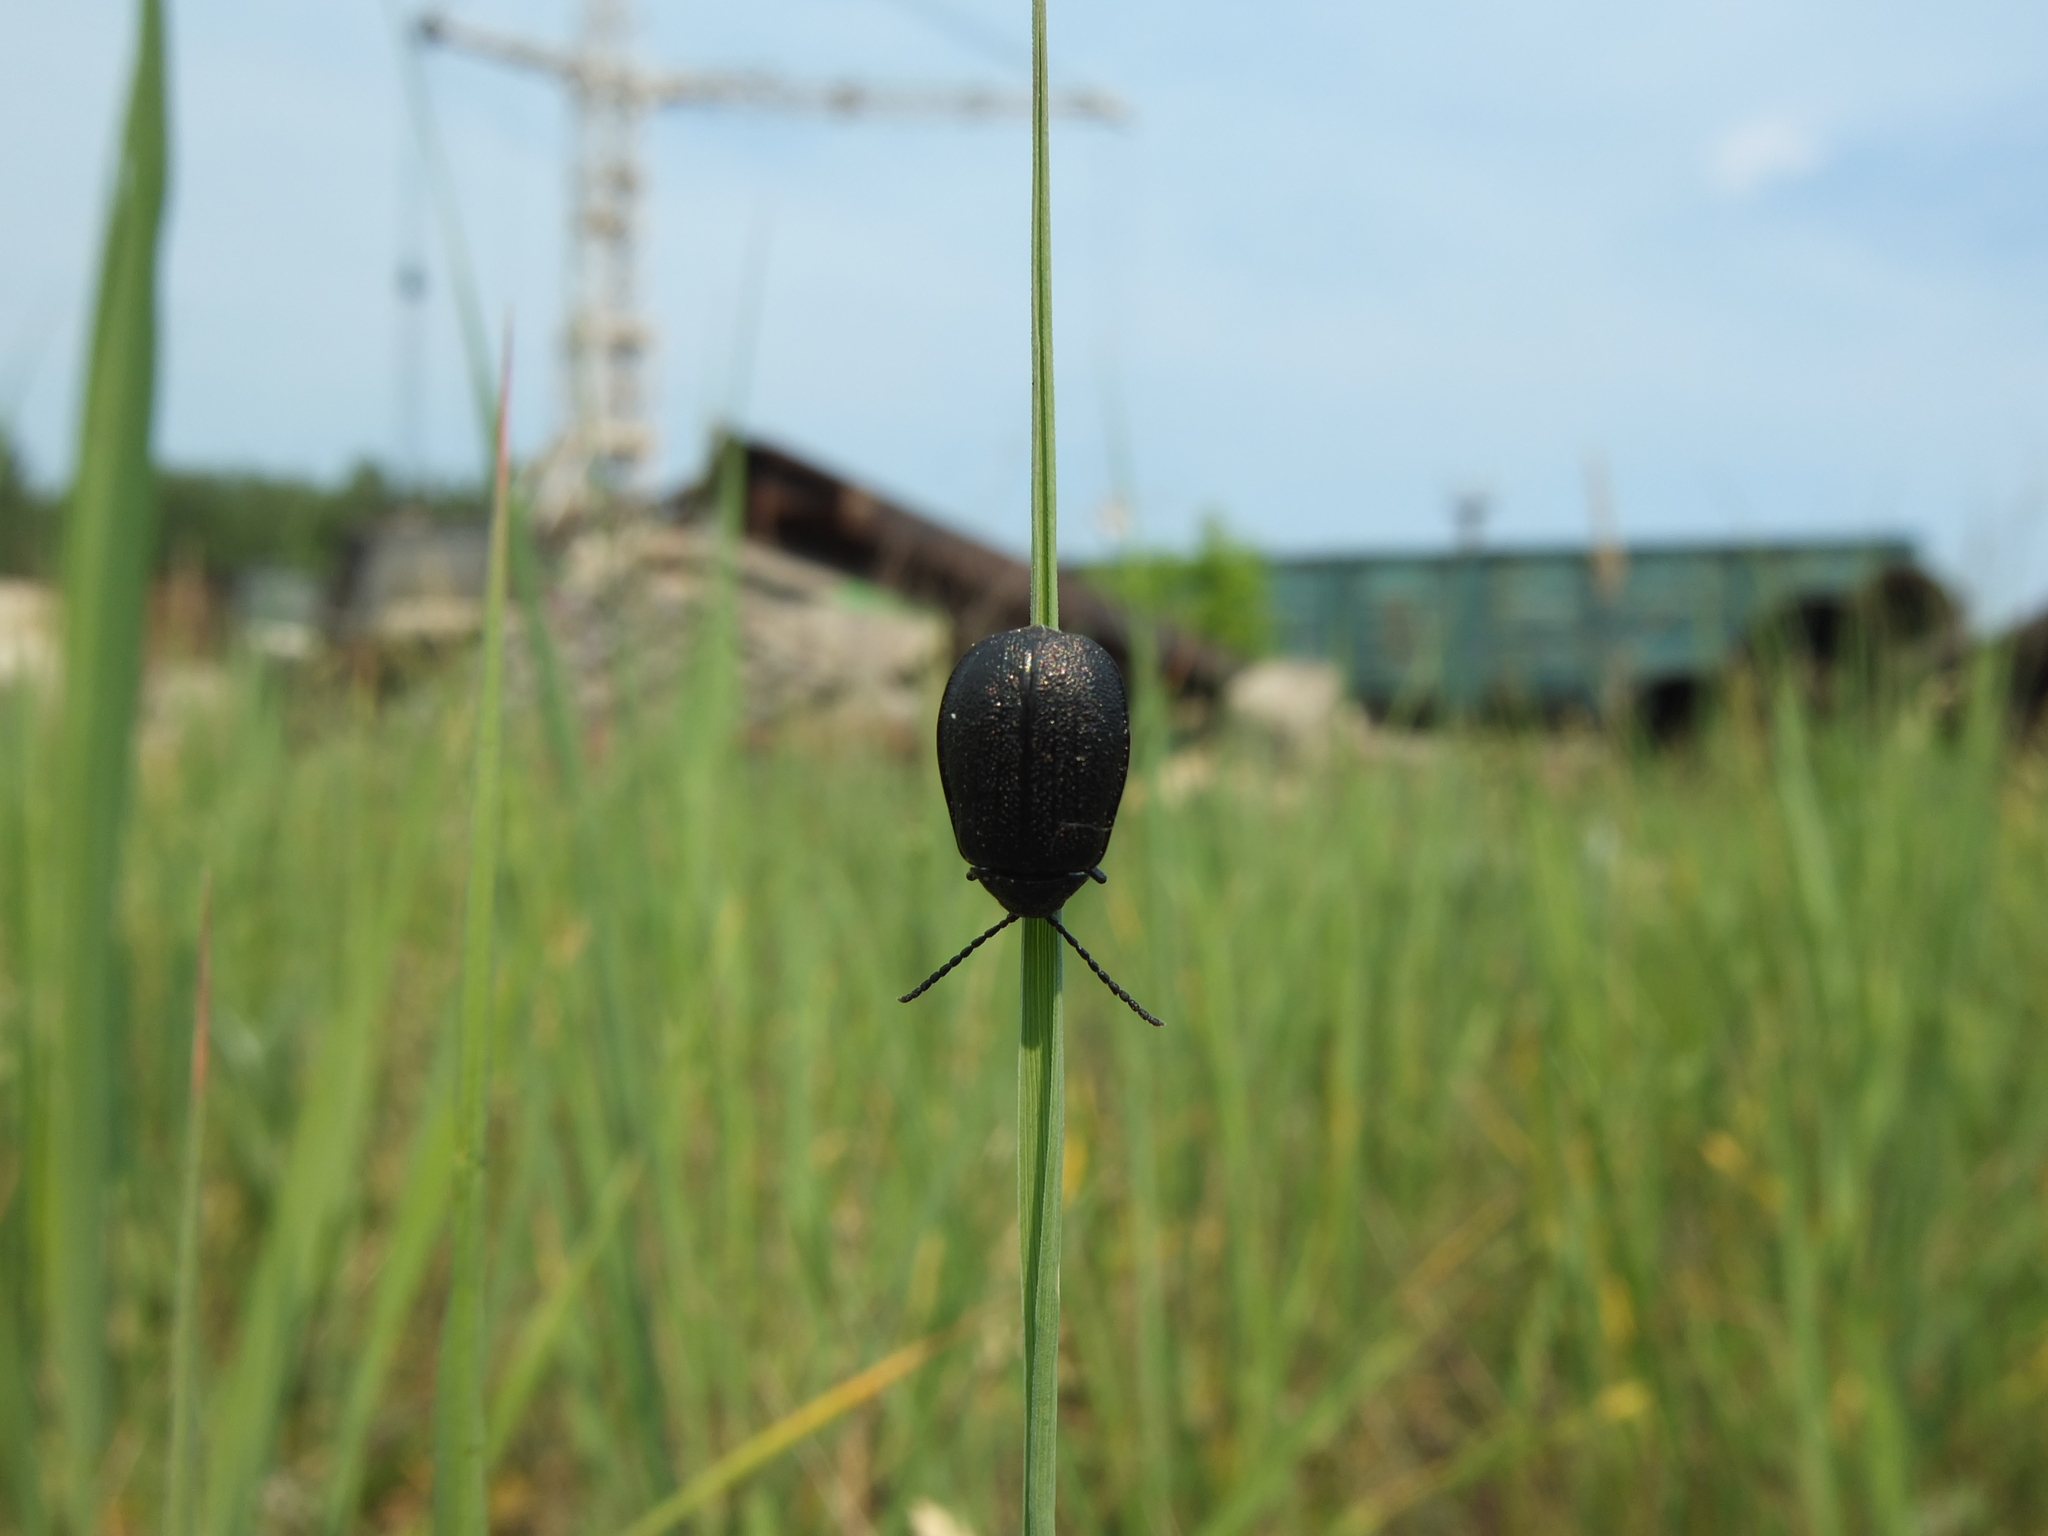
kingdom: Animalia
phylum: Arthropoda
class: Insecta
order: Coleoptera
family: Chrysomelidae
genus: Galeruca
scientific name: Galeruca tanaceti
